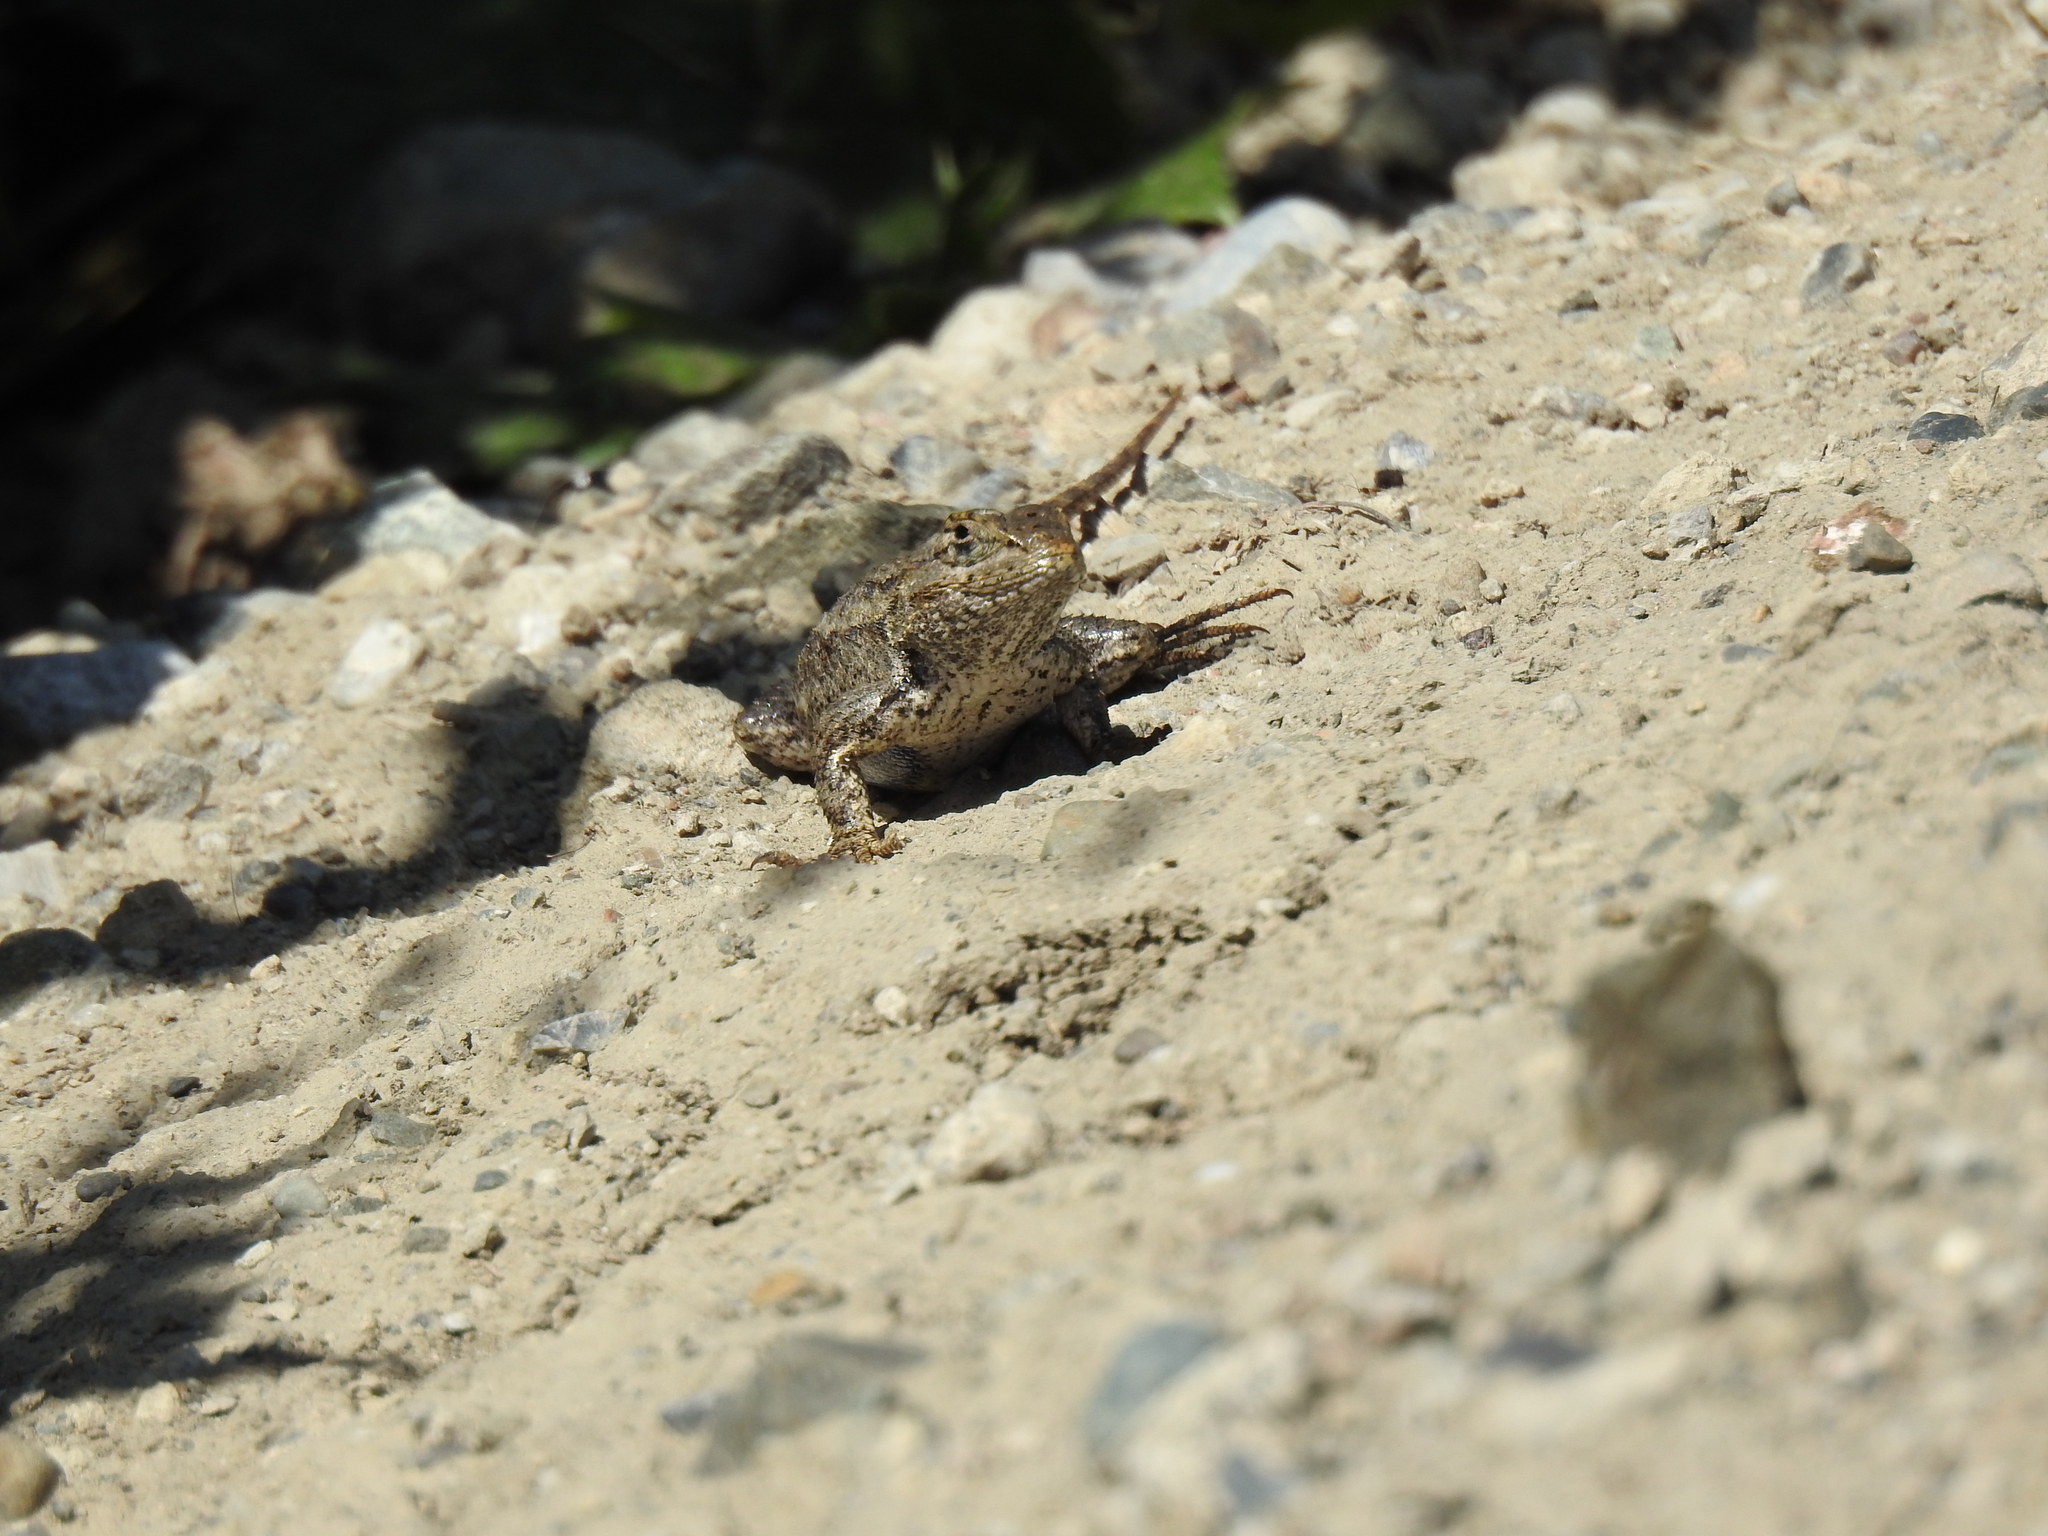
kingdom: Animalia
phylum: Chordata
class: Squamata
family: Phrynosomatidae
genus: Sceloporus
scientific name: Sceloporus occidentalis
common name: Western fence lizard
